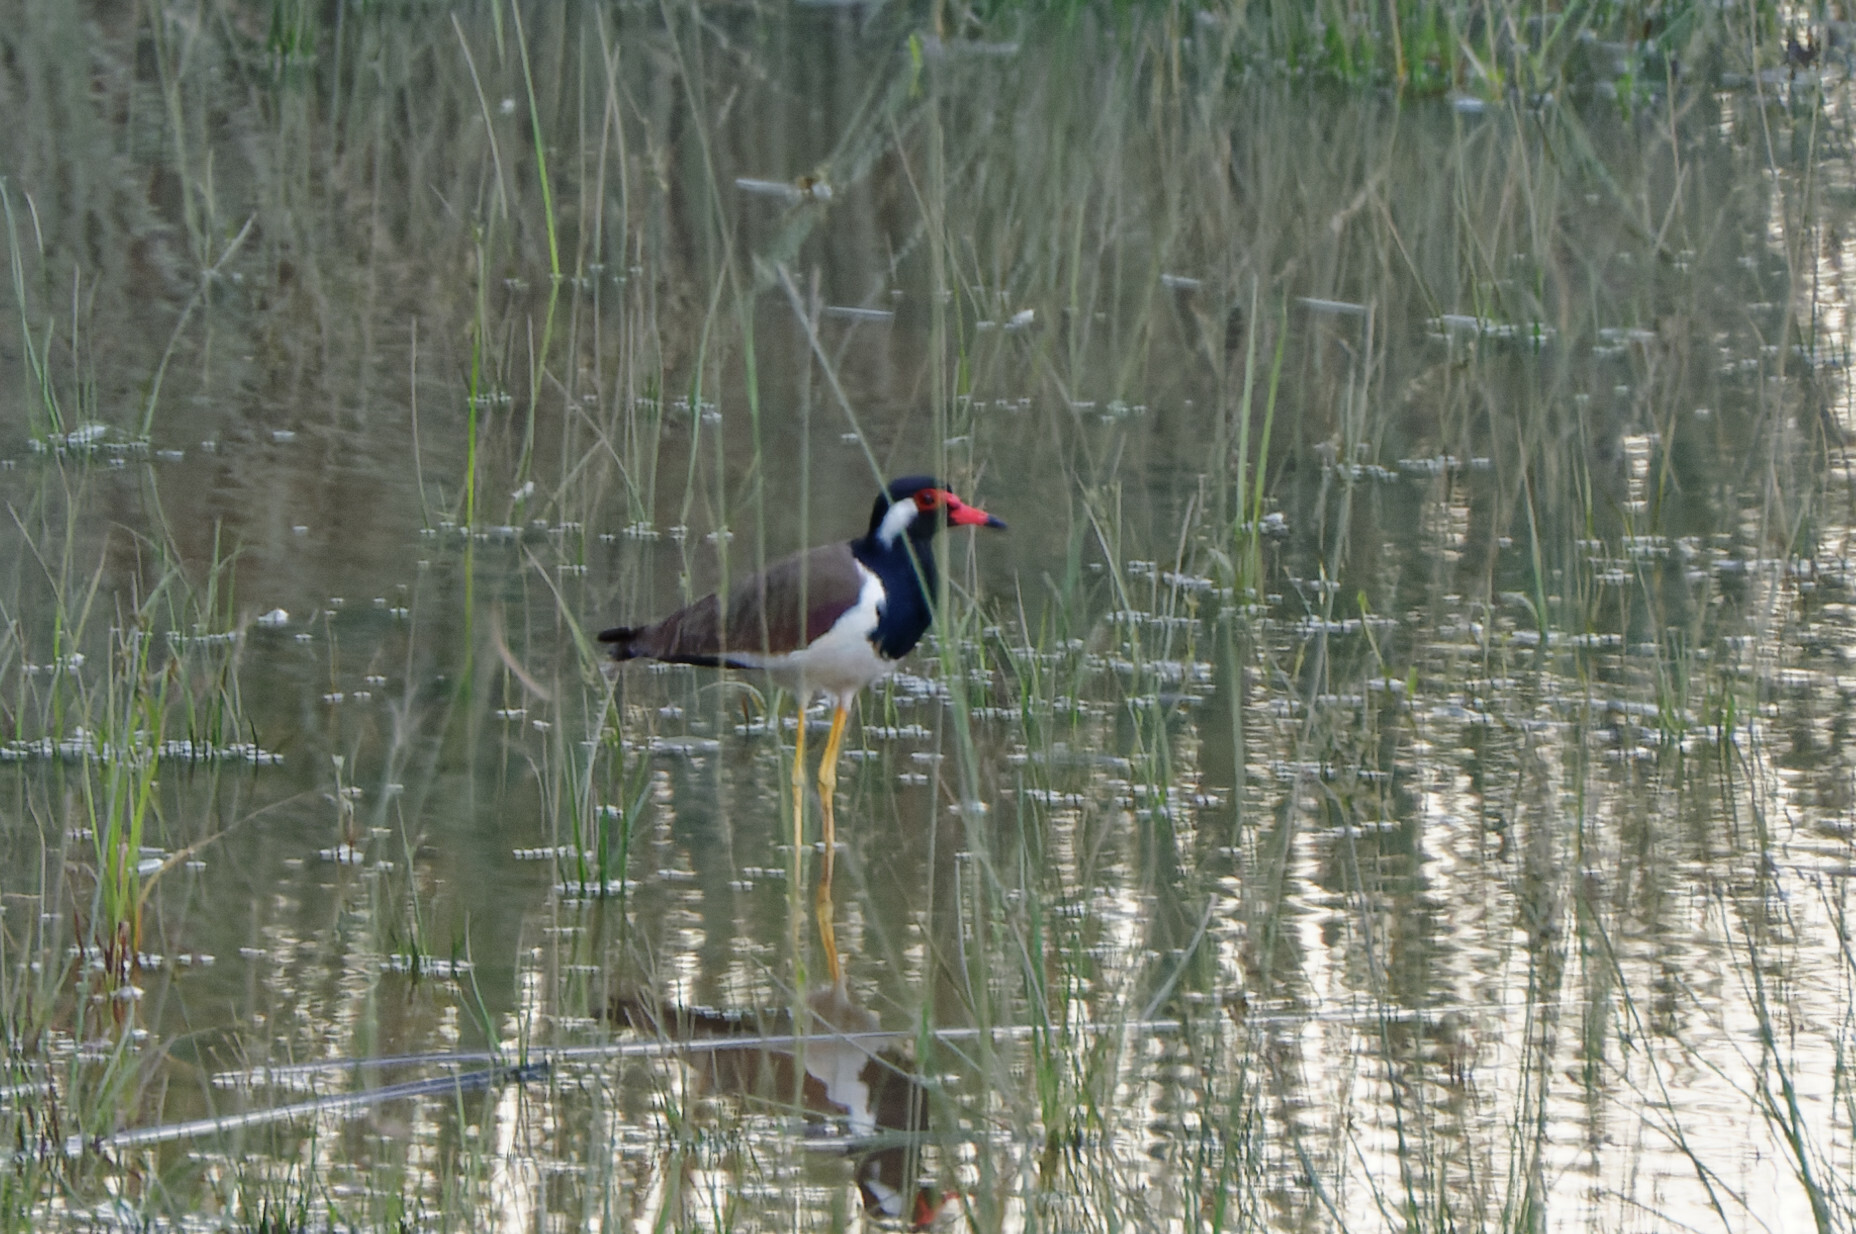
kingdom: Animalia
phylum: Chordata
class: Aves
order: Charadriiformes
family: Charadriidae
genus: Vanellus
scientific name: Vanellus indicus
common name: Red-wattled lapwing
